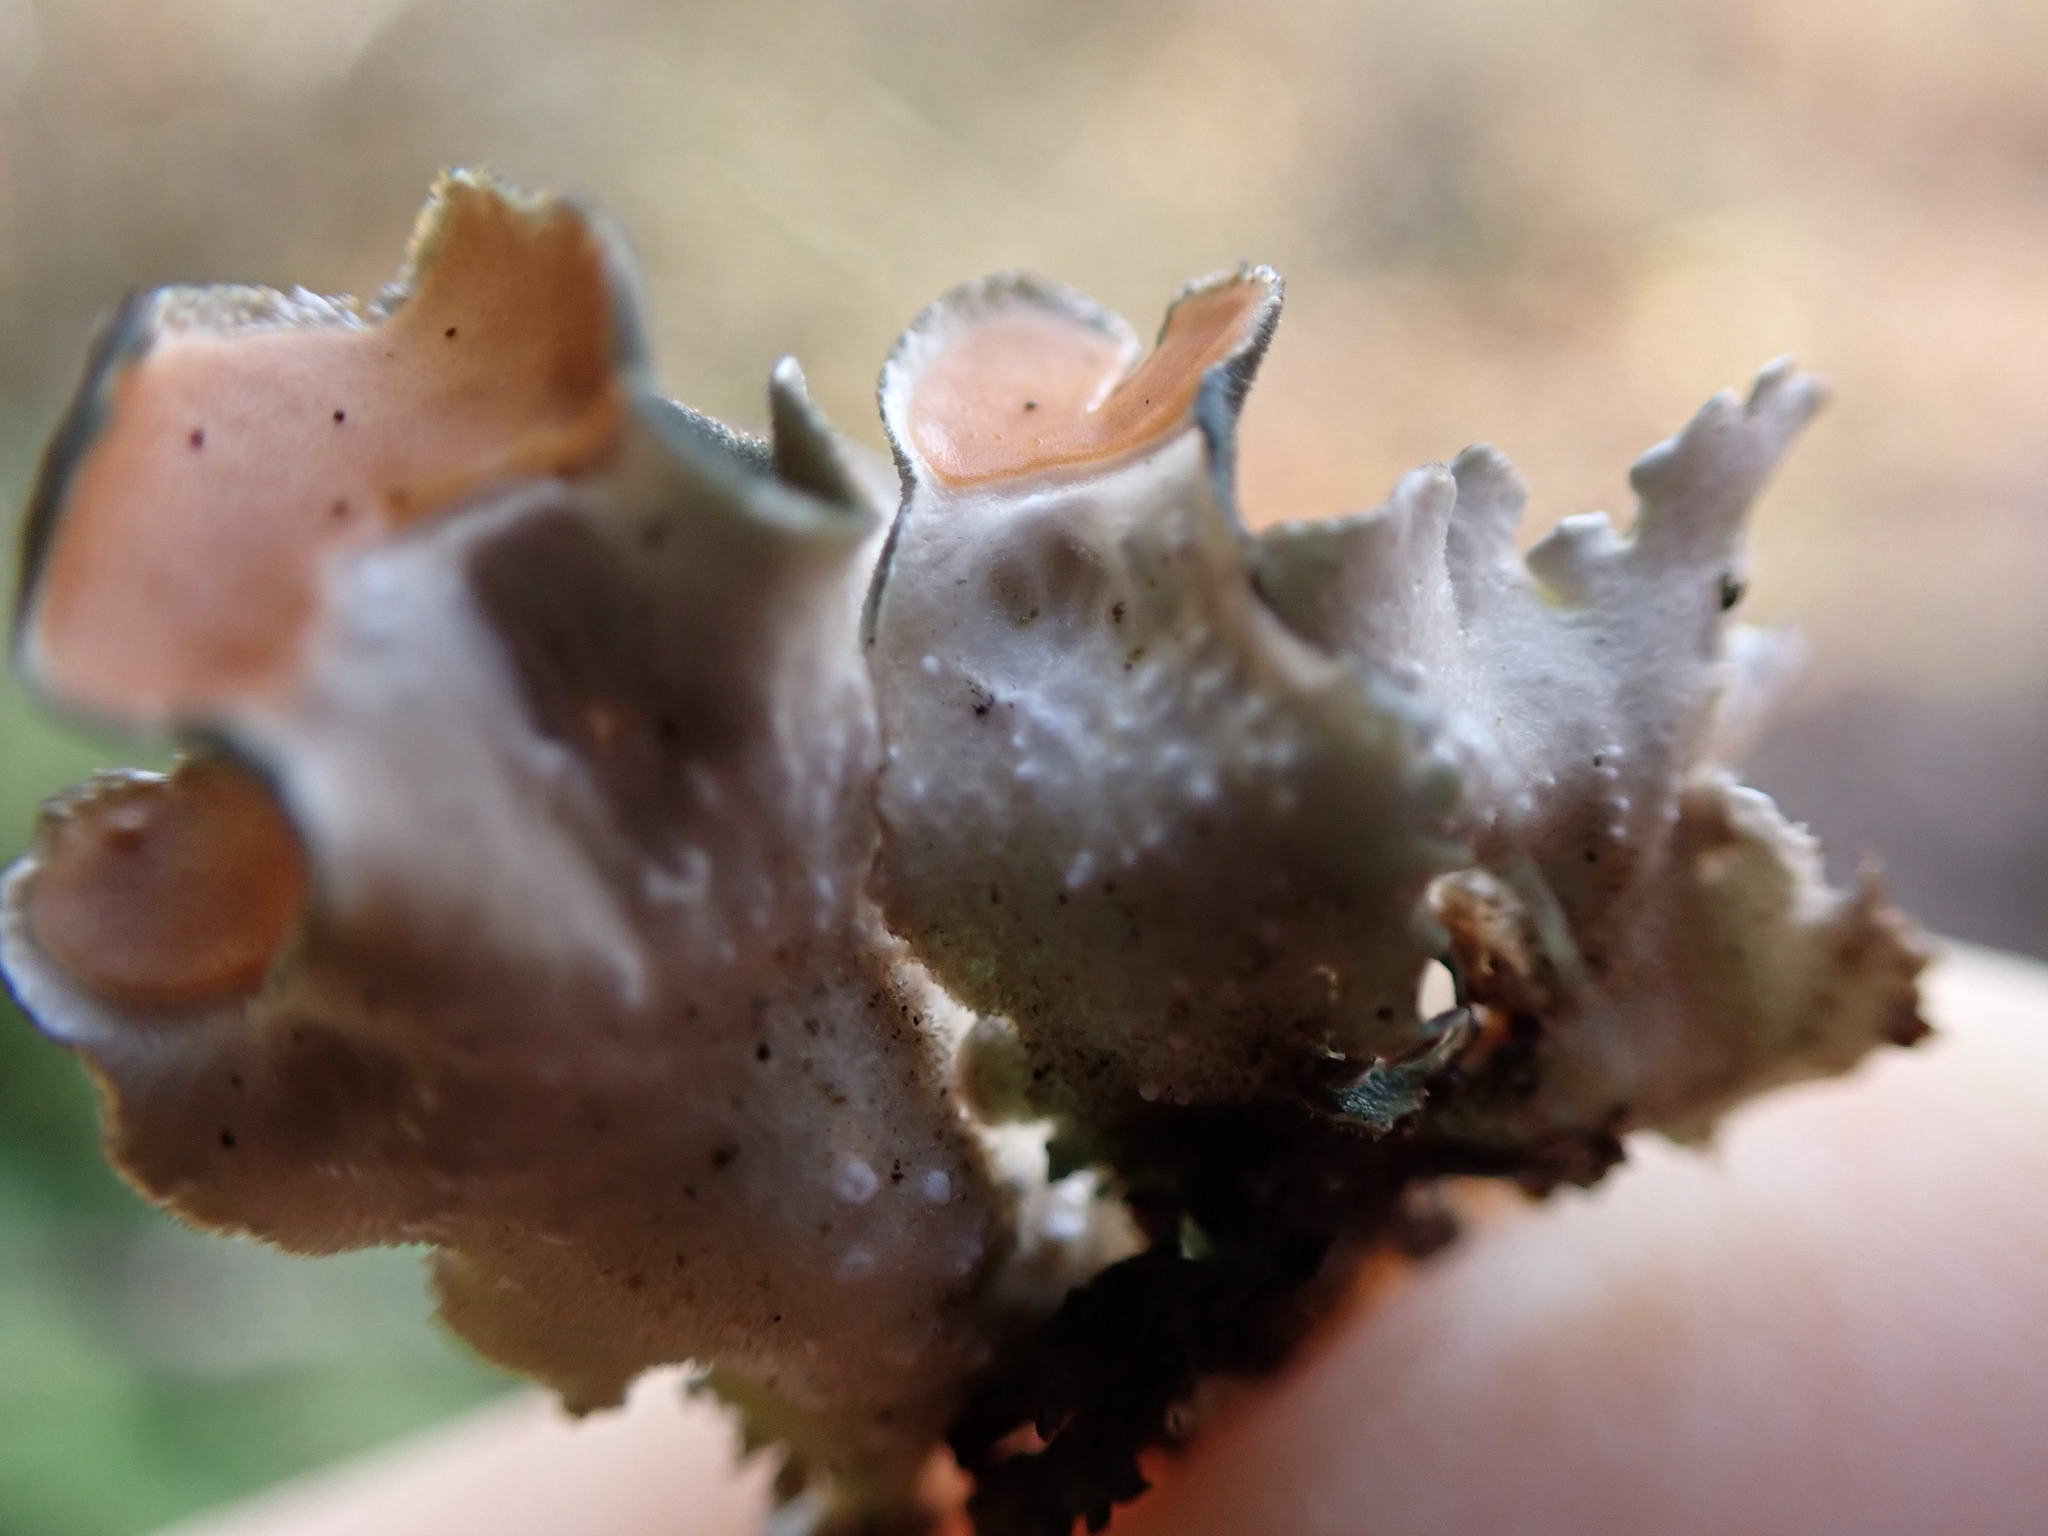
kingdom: Fungi
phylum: Ascomycota
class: Lecanoromycetes
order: Peltigerales
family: Nephromataceae
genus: Nephroma
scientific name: Nephroma resupinatum
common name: Pimpled kidney lichen
